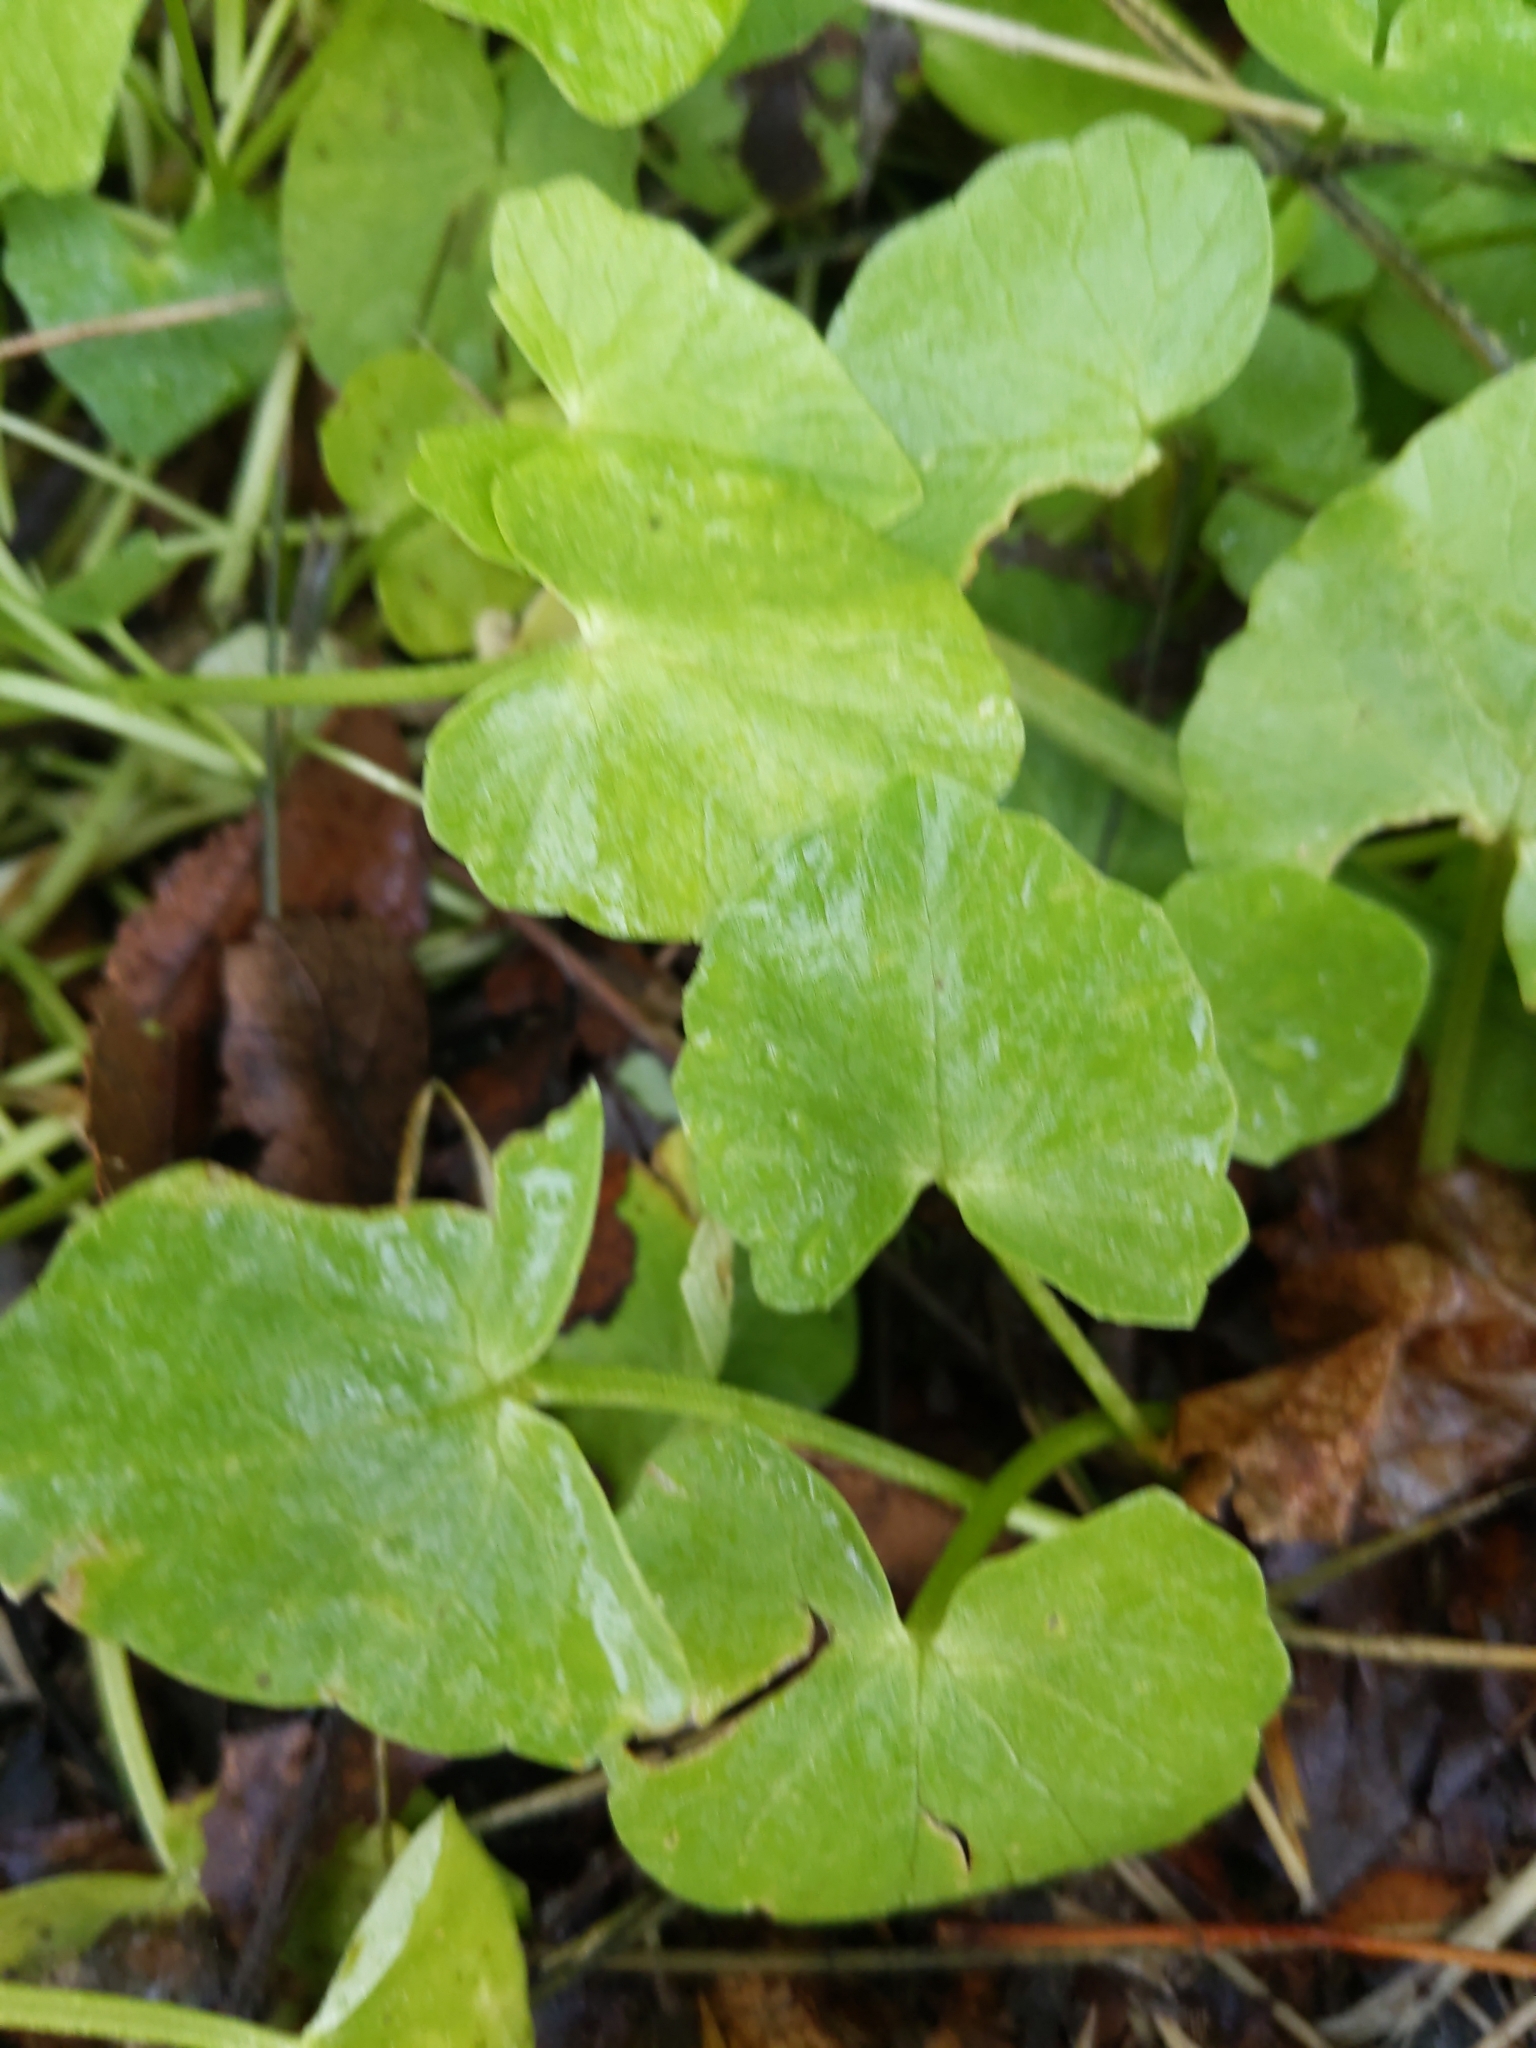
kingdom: Plantae
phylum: Tracheophyta
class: Magnoliopsida
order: Ranunculales
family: Ranunculaceae
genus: Ficaria
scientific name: Ficaria verna
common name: Lesser celandine
